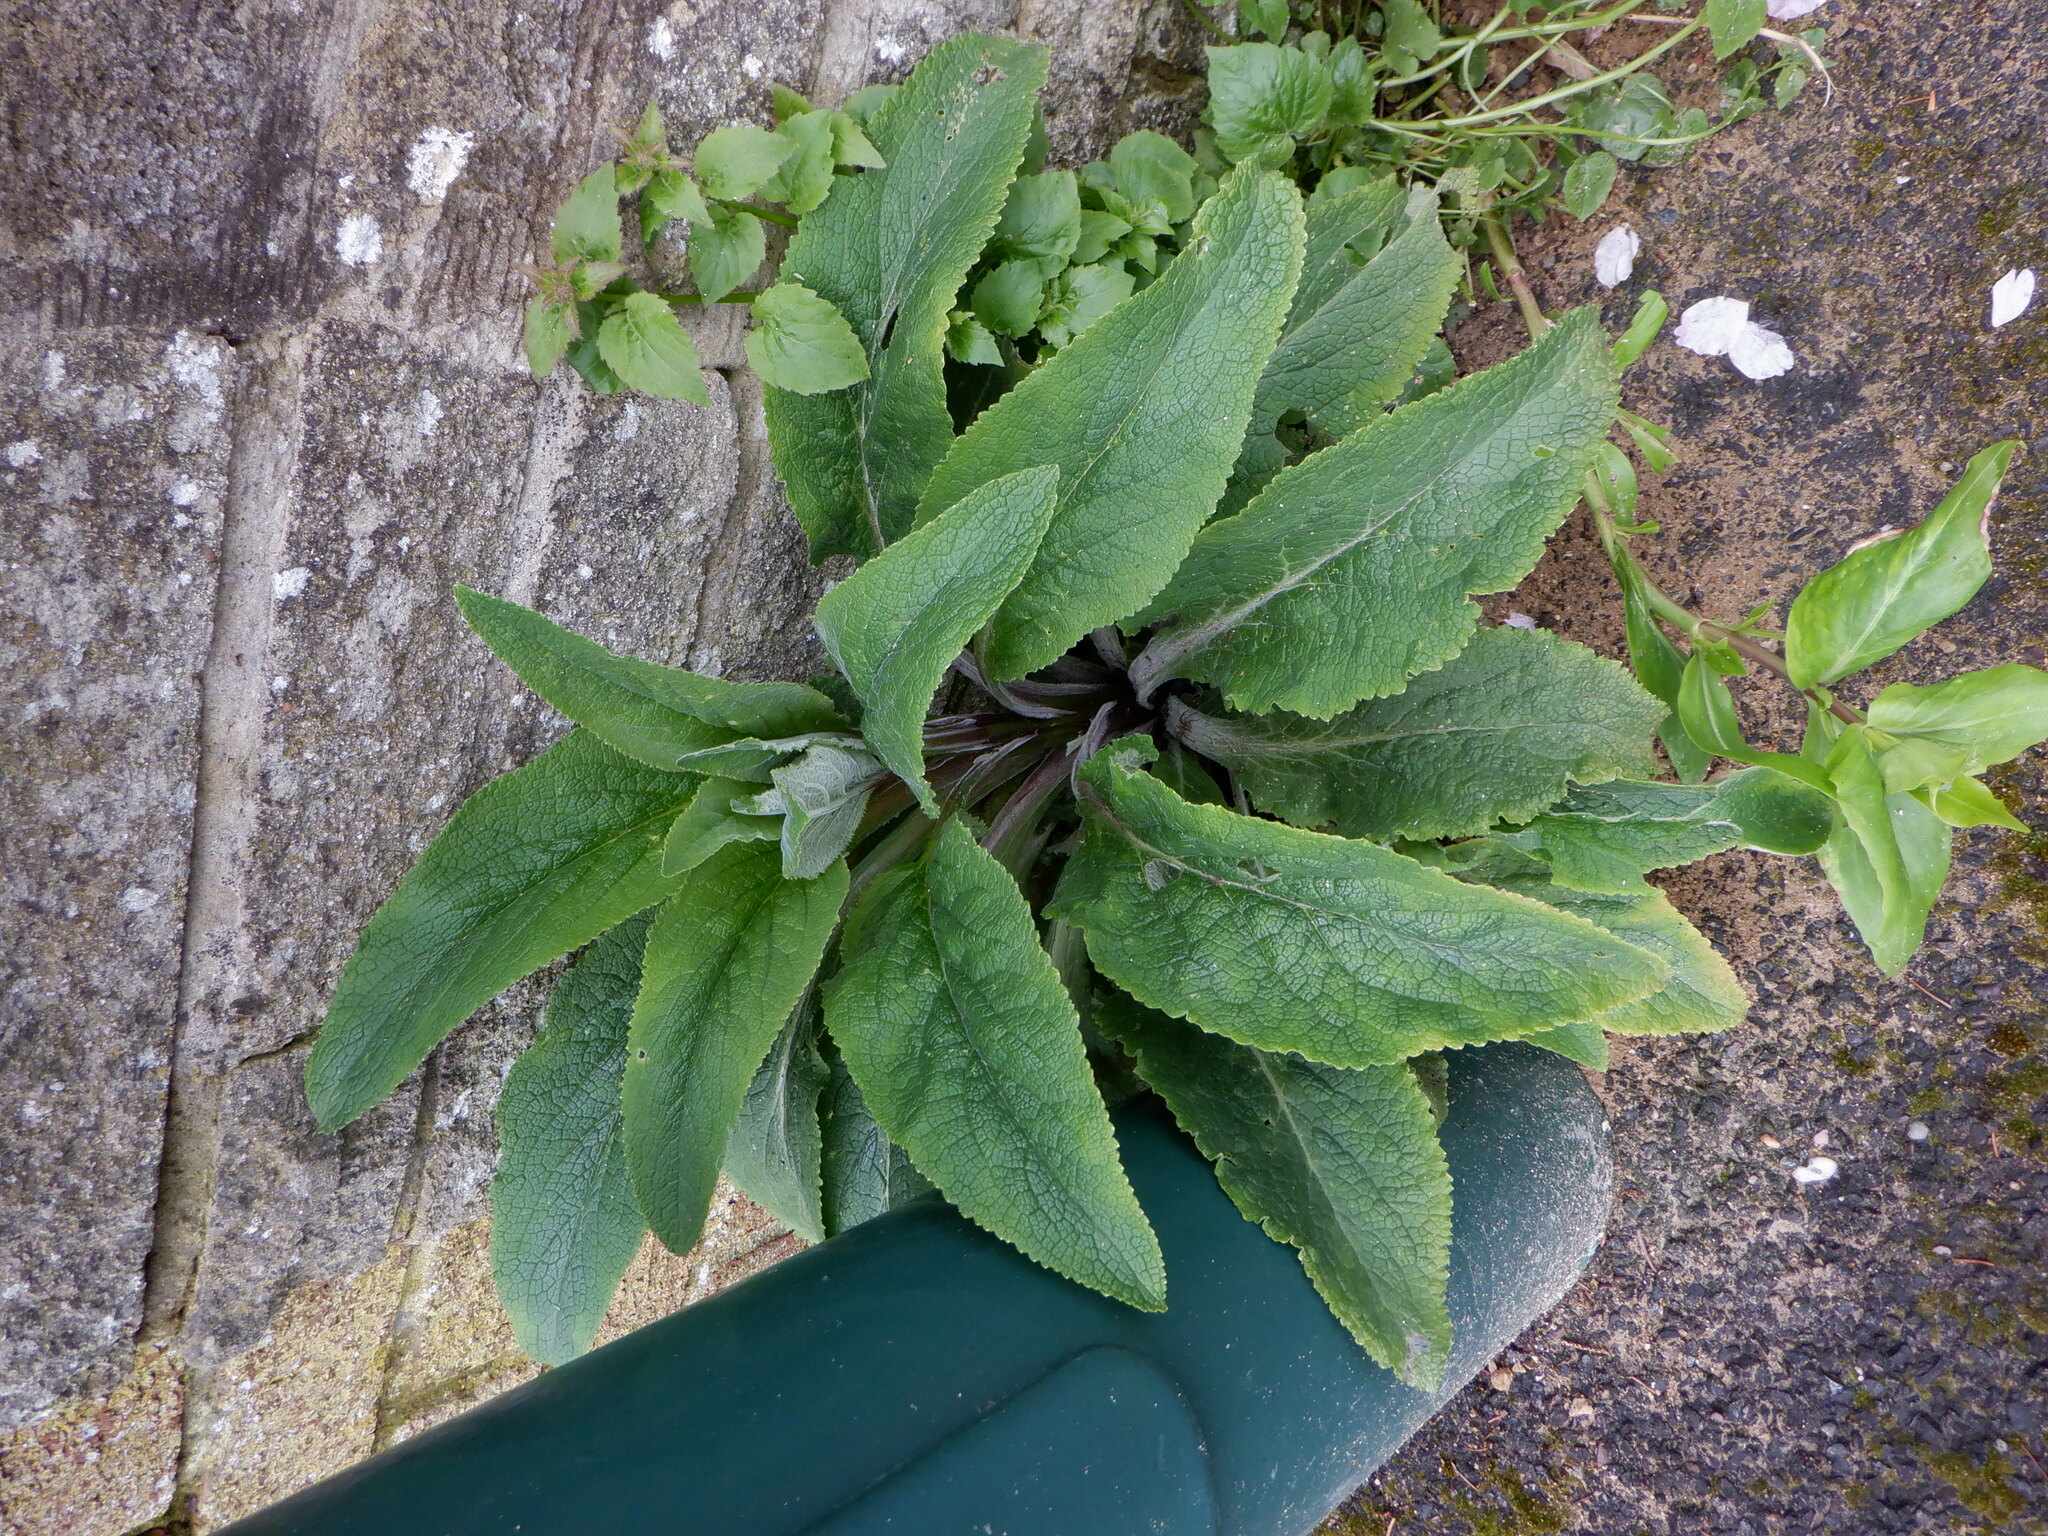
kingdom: Plantae
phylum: Tracheophyta
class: Magnoliopsida
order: Lamiales
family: Plantaginaceae
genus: Digitalis
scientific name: Digitalis purpurea
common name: Foxglove
